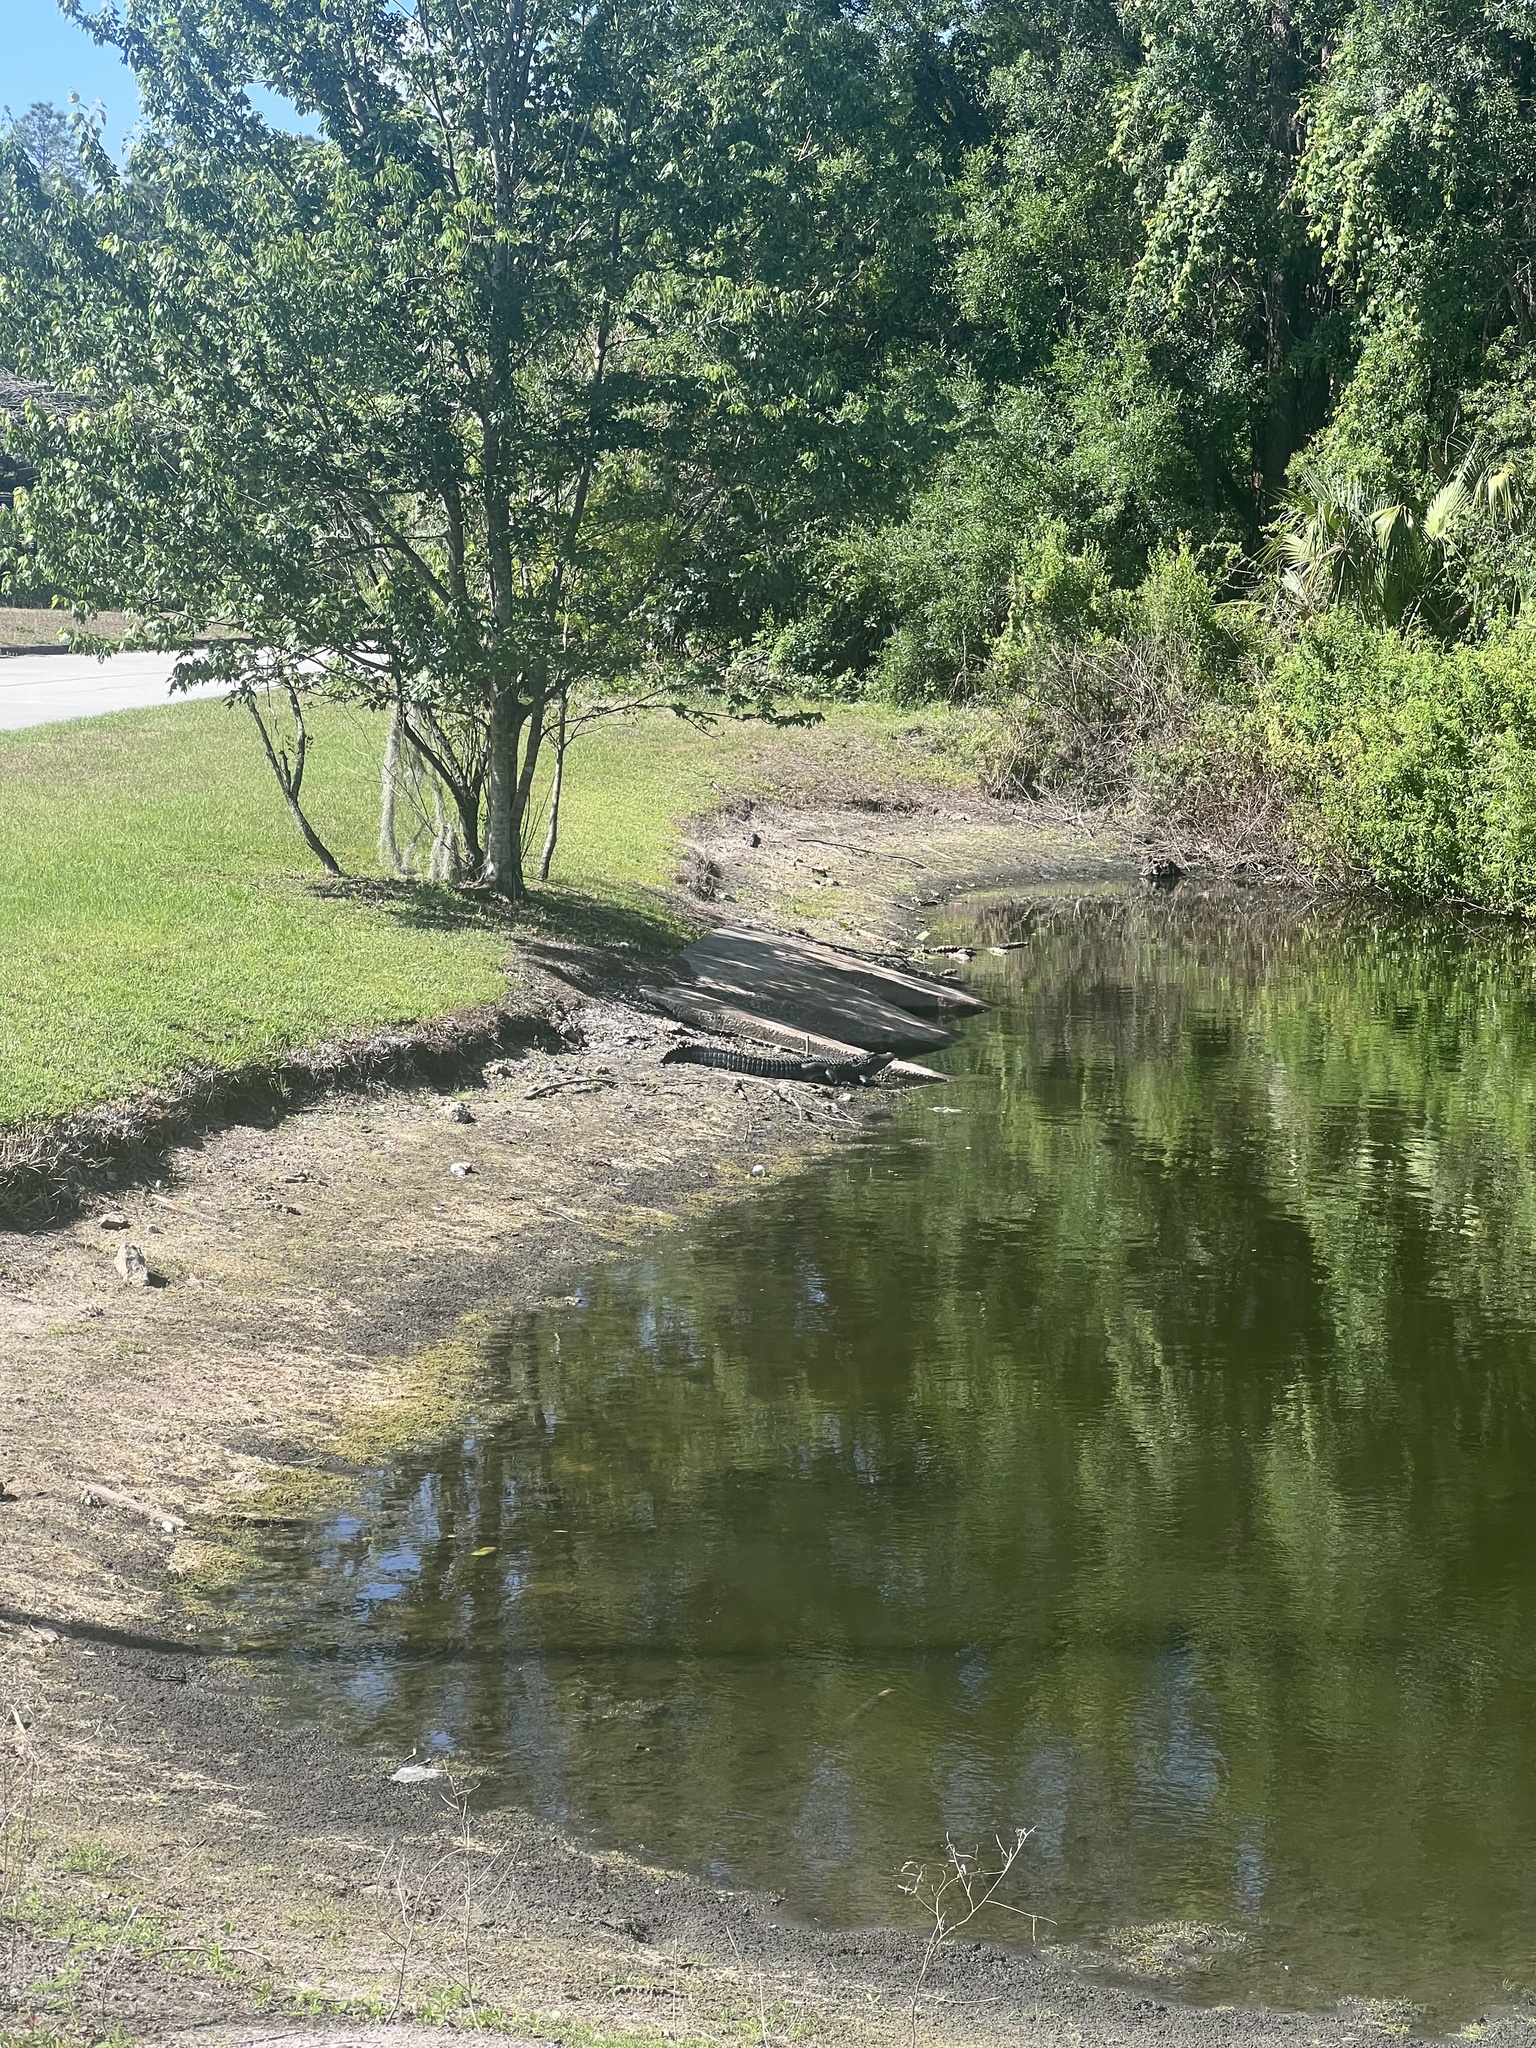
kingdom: Animalia
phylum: Chordata
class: Crocodylia
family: Alligatoridae
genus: Alligator
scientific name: Alligator mississippiensis
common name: American alligator
